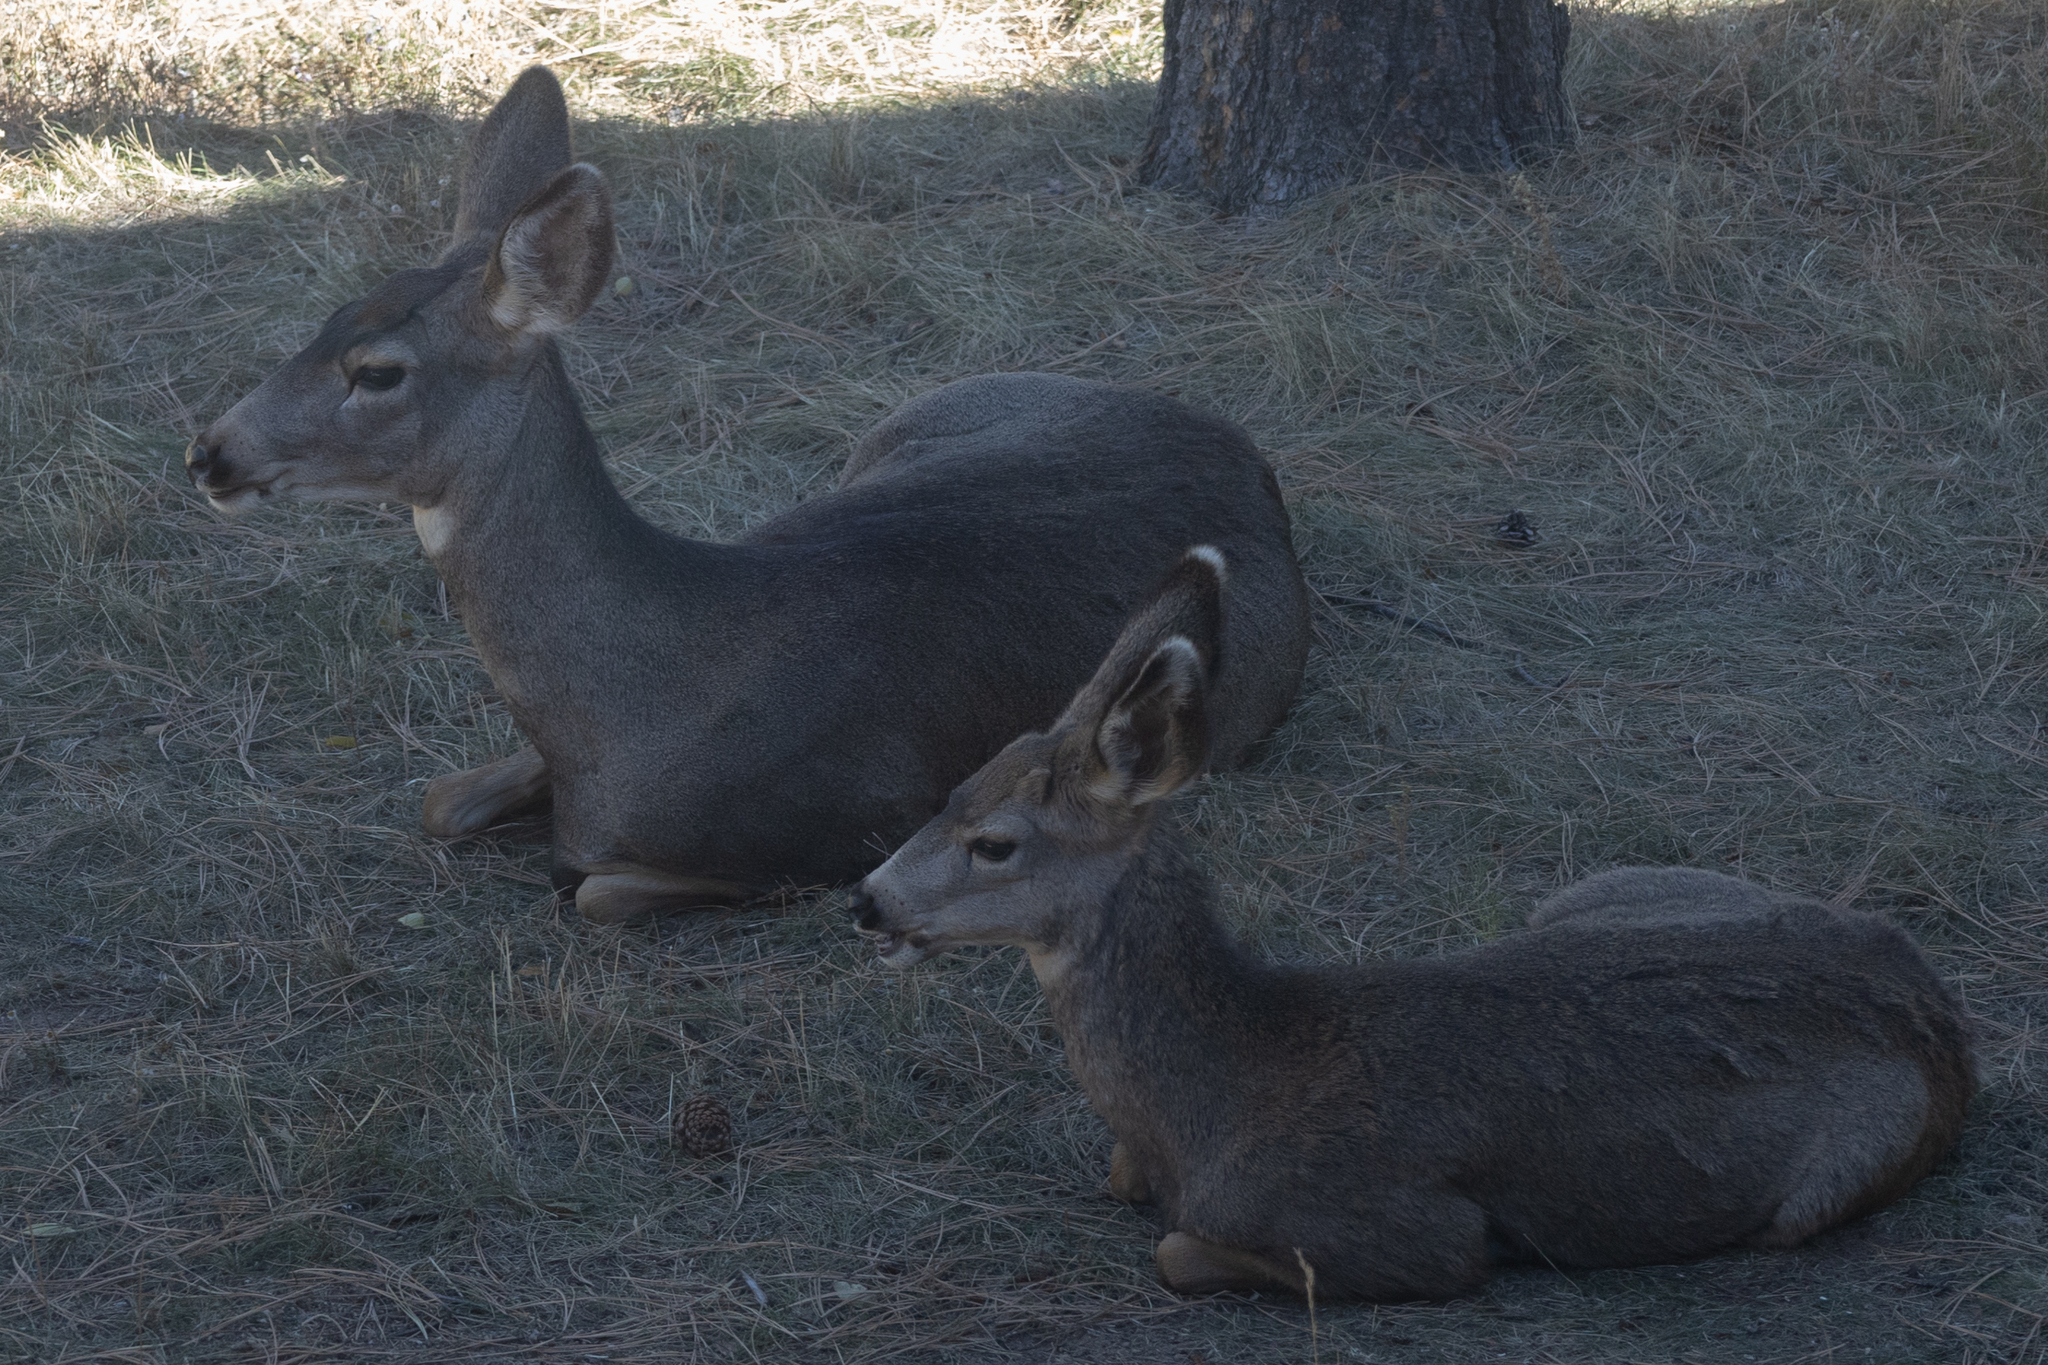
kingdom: Animalia
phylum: Chordata
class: Mammalia
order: Artiodactyla
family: Cervidae
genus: Odocoileus
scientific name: Odocoileus hemionus
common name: Mule deer
